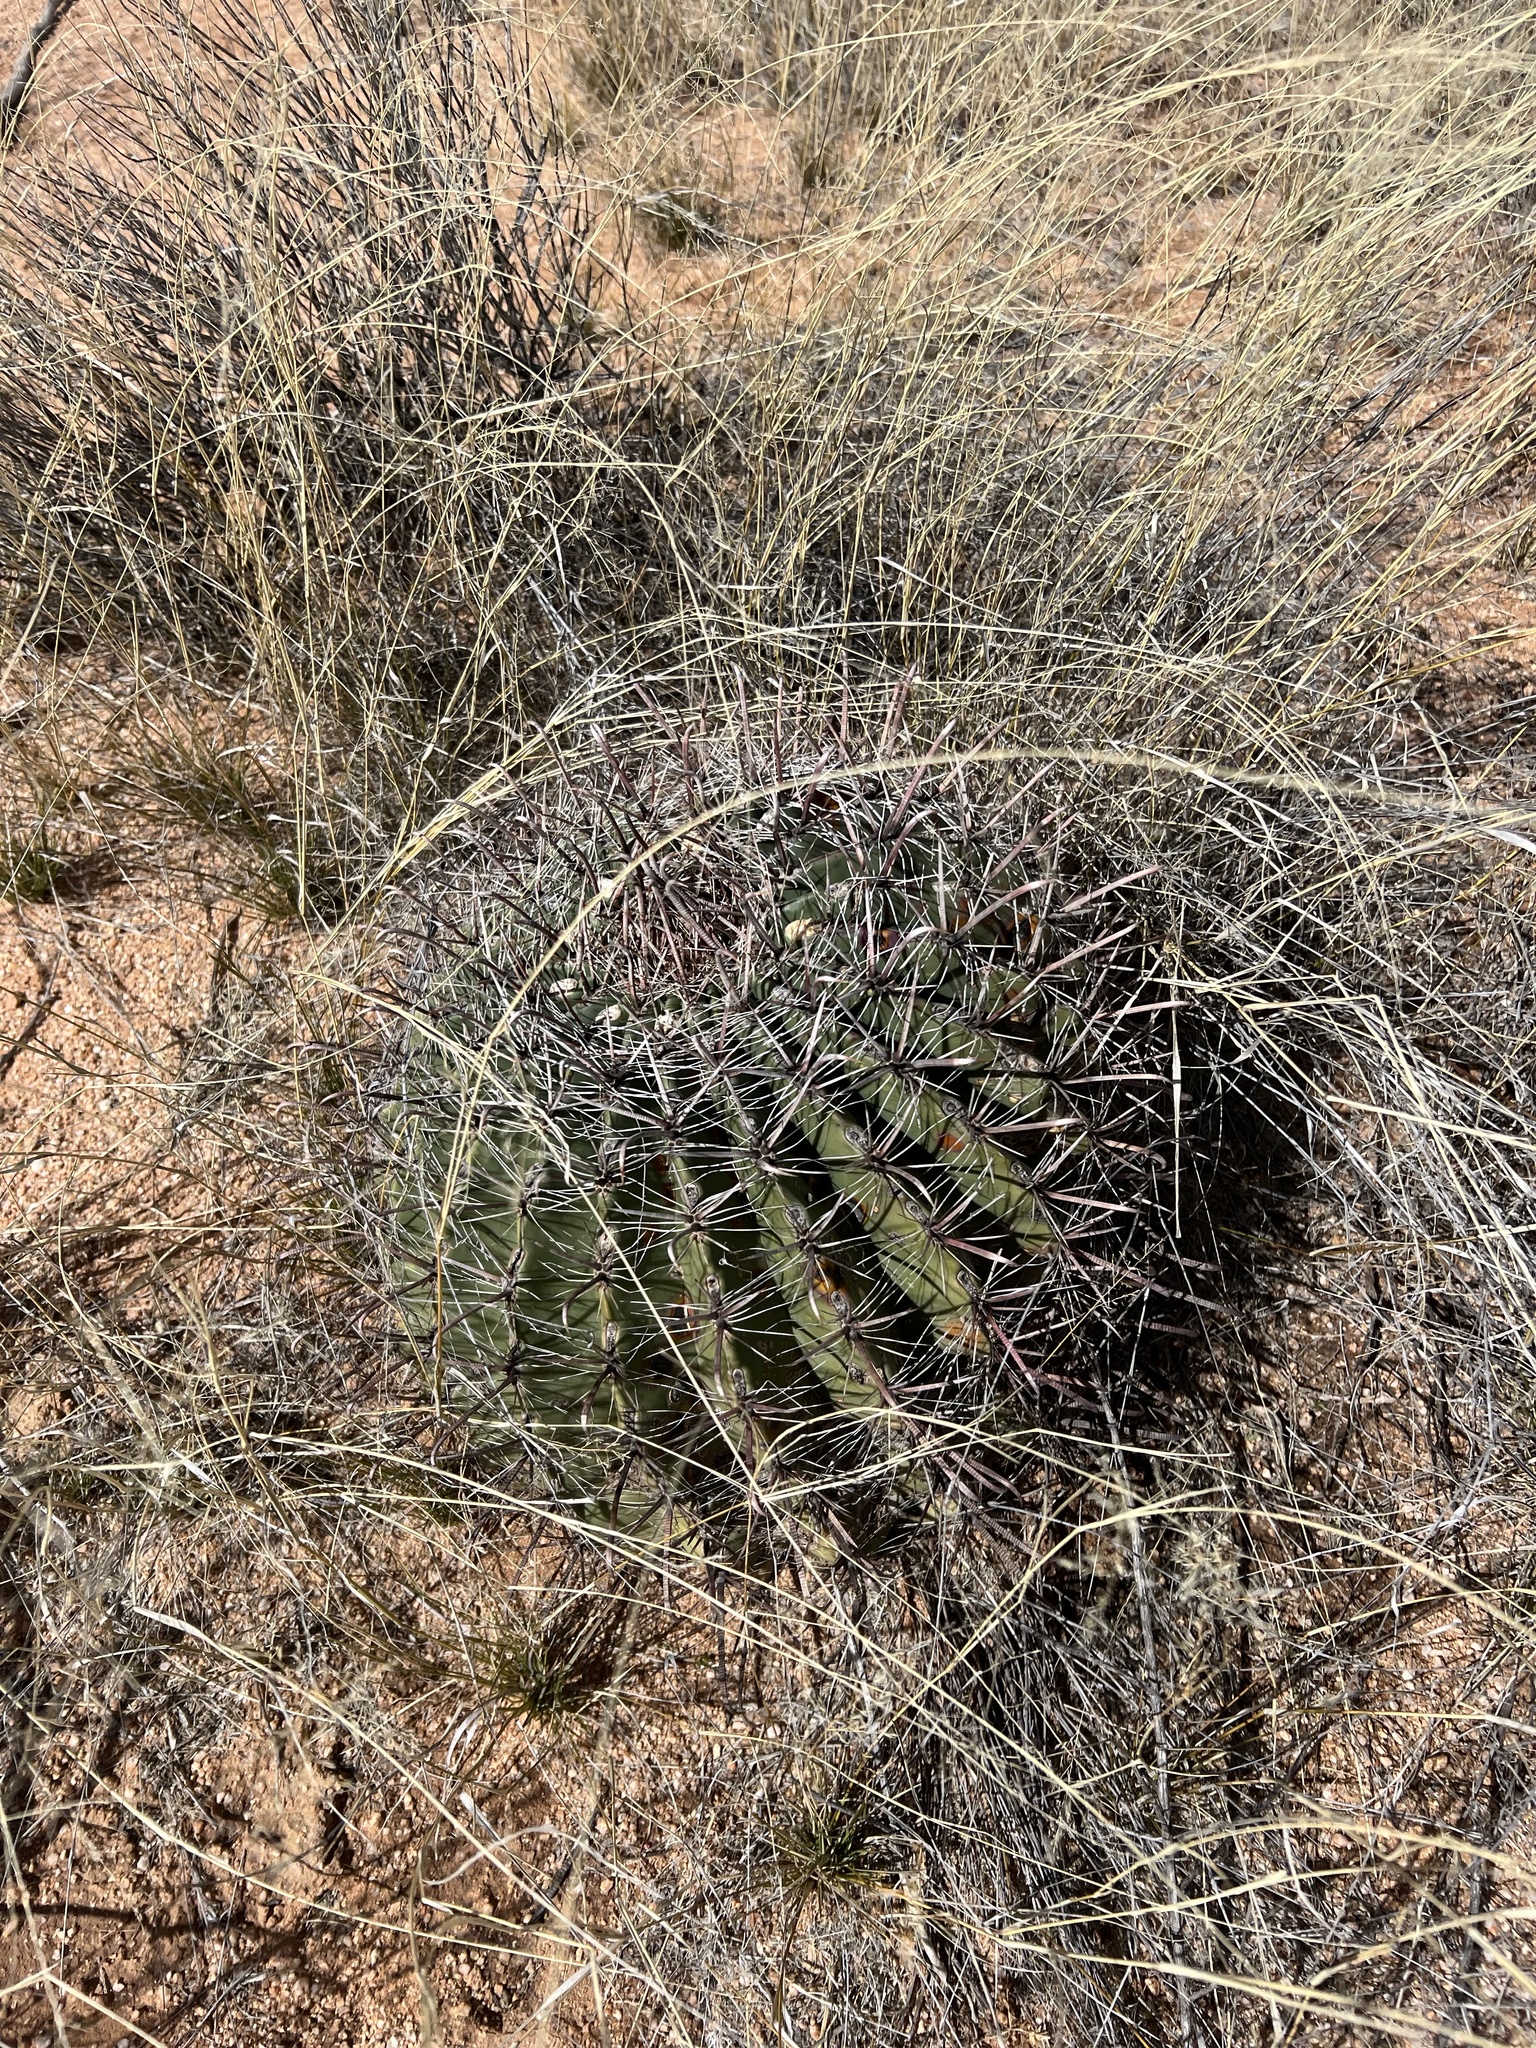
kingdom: Plantae
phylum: Tracheophyta
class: Magnoliopsida
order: Caryophyllales
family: Cactaceae
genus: Ferocactus
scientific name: Ferocactus wislizeni
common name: Candy barrel cactus
